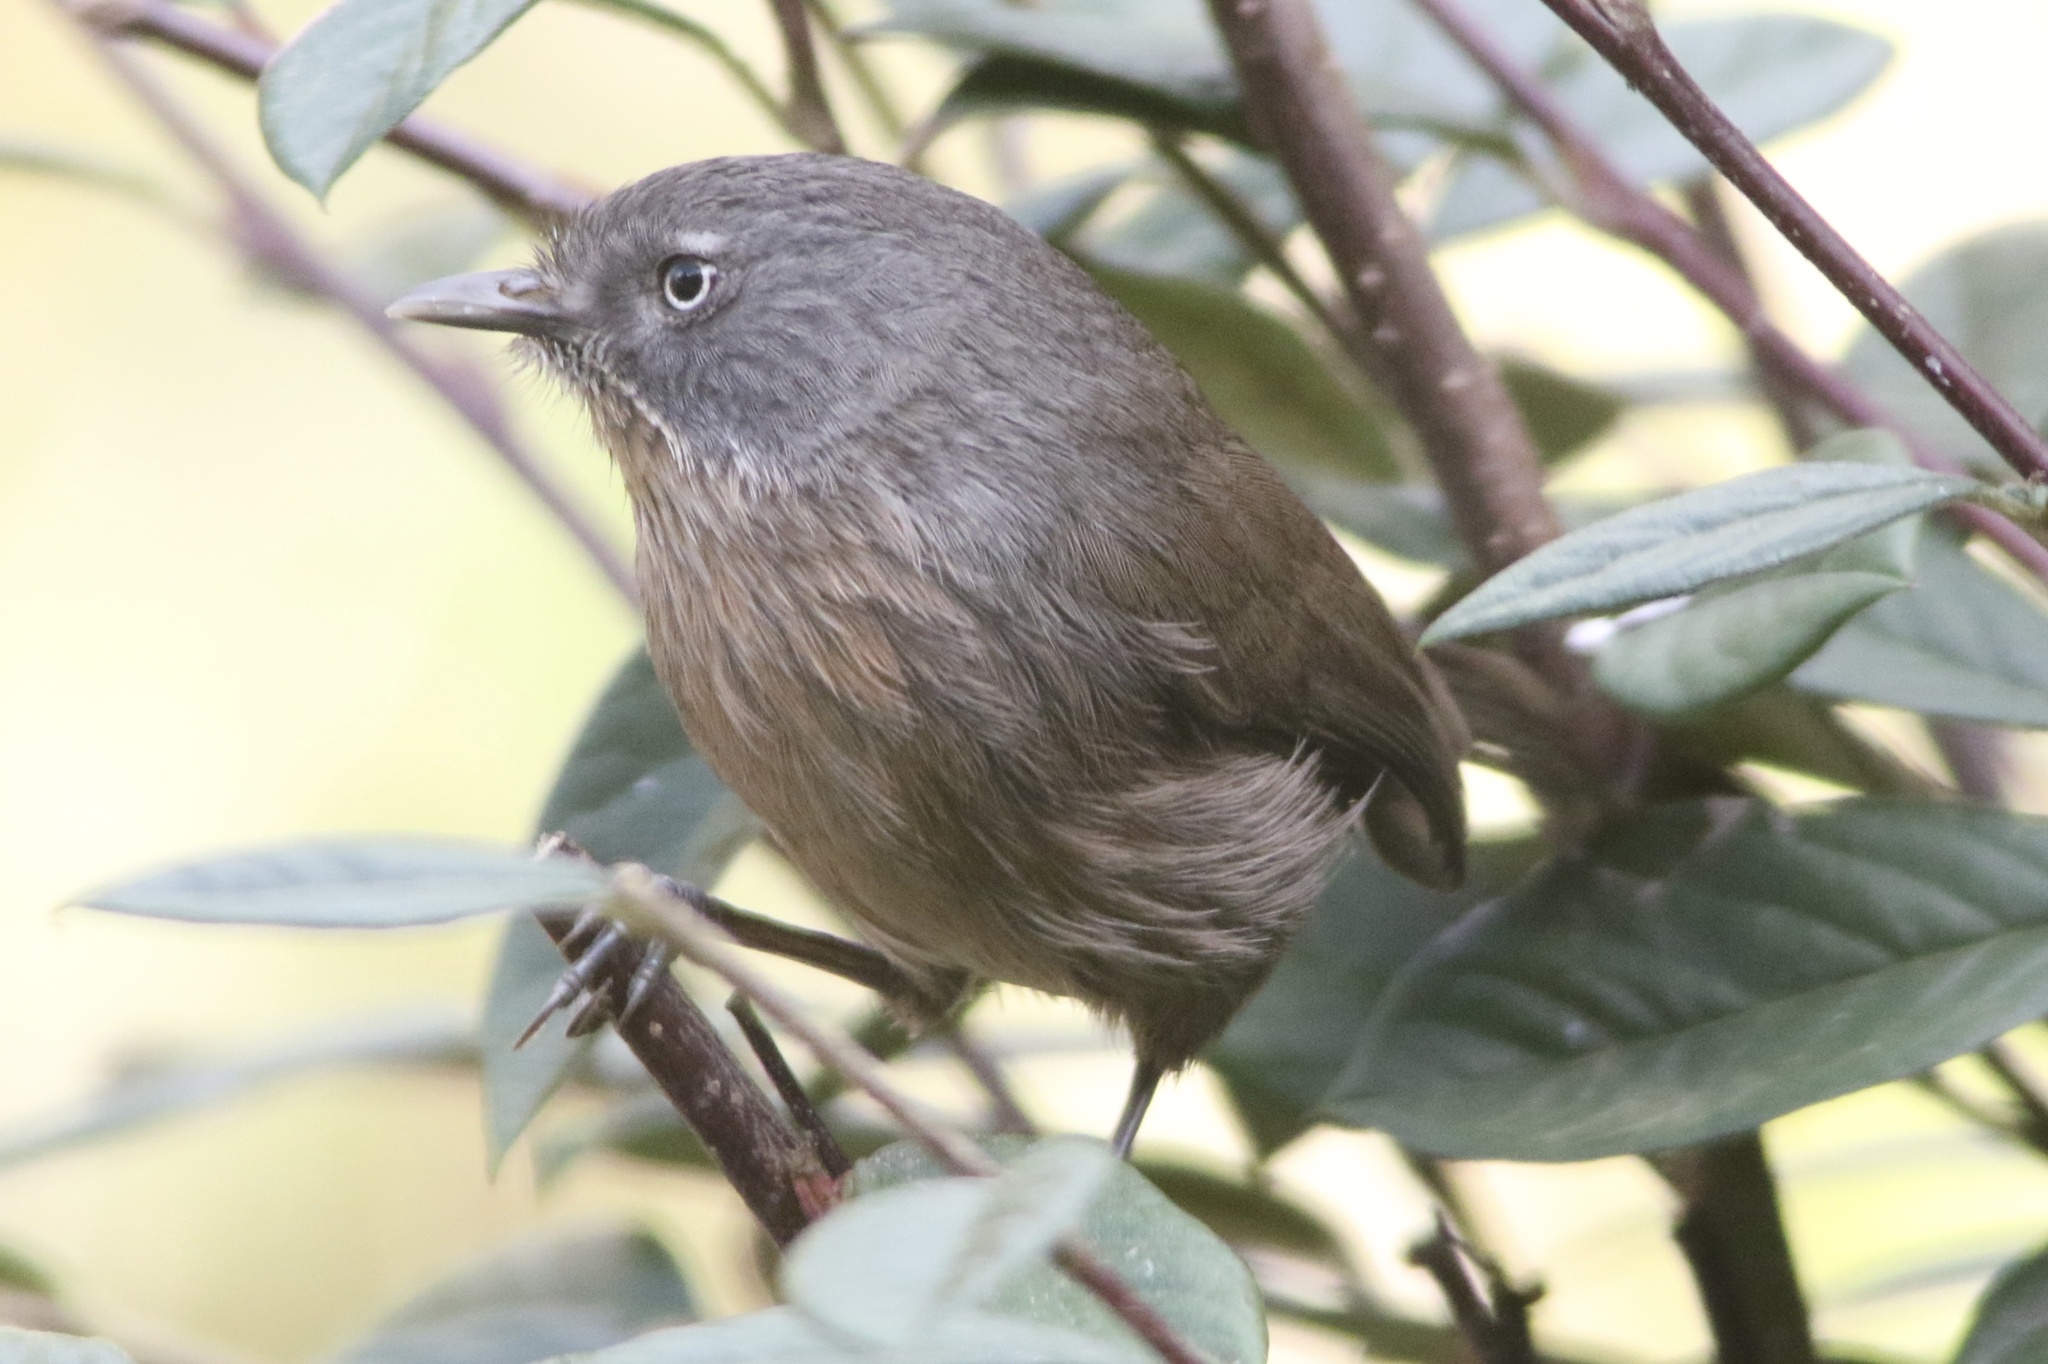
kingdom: Animalia
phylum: Chordata
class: Aves
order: Passeriformes
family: Sylviidae
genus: Chamaea
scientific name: Chamaea fasciata
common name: Wrentit
